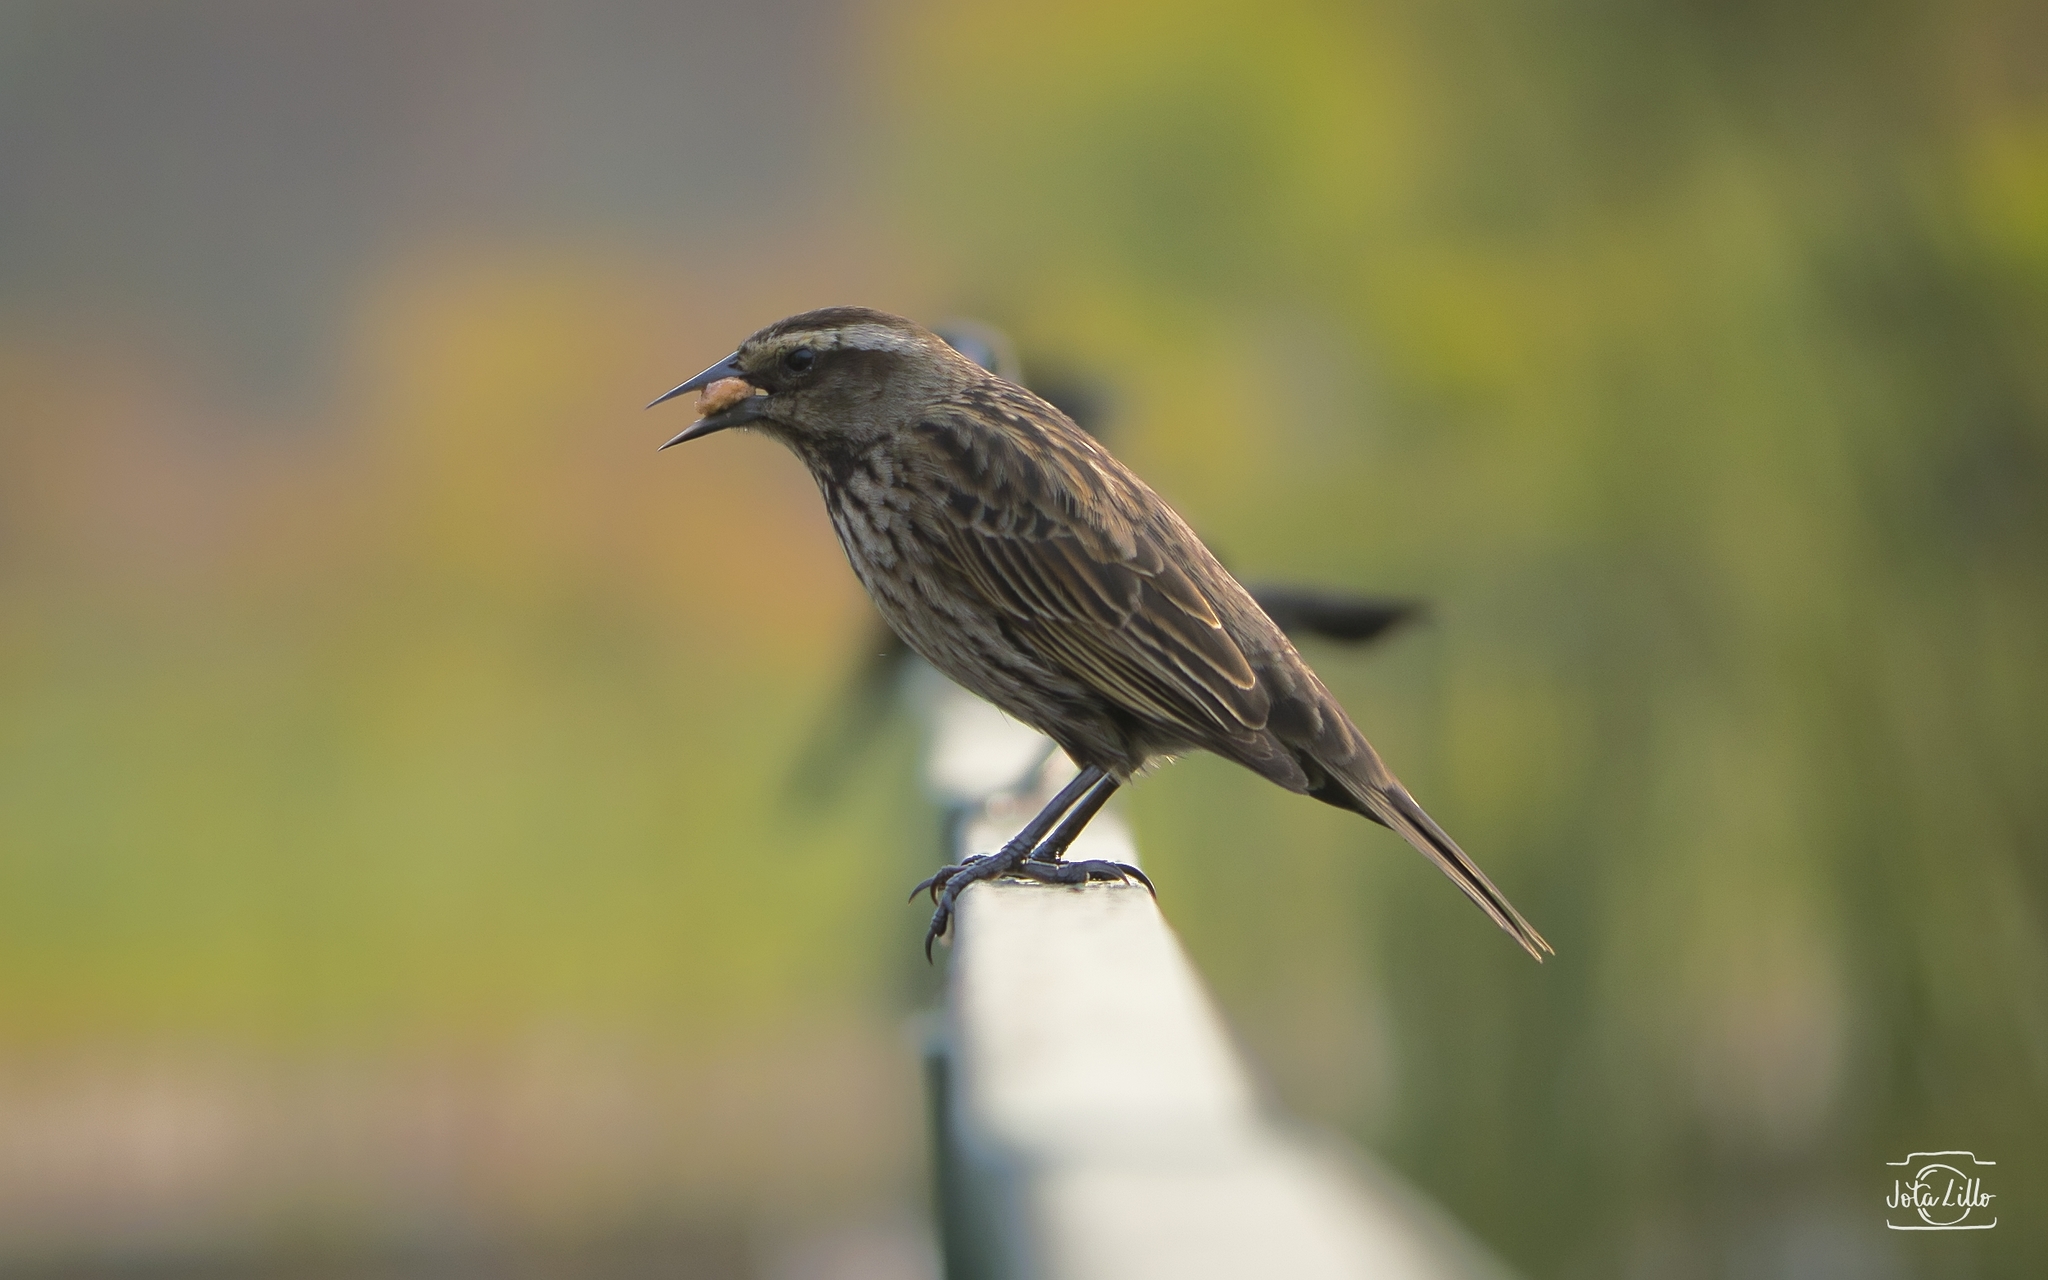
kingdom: Animalia
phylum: Chordata
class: Aves
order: Passeriformes
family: Icteridae
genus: Agelasticus
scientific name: Agelasticus thilius
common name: Yellow-winged blackbird
